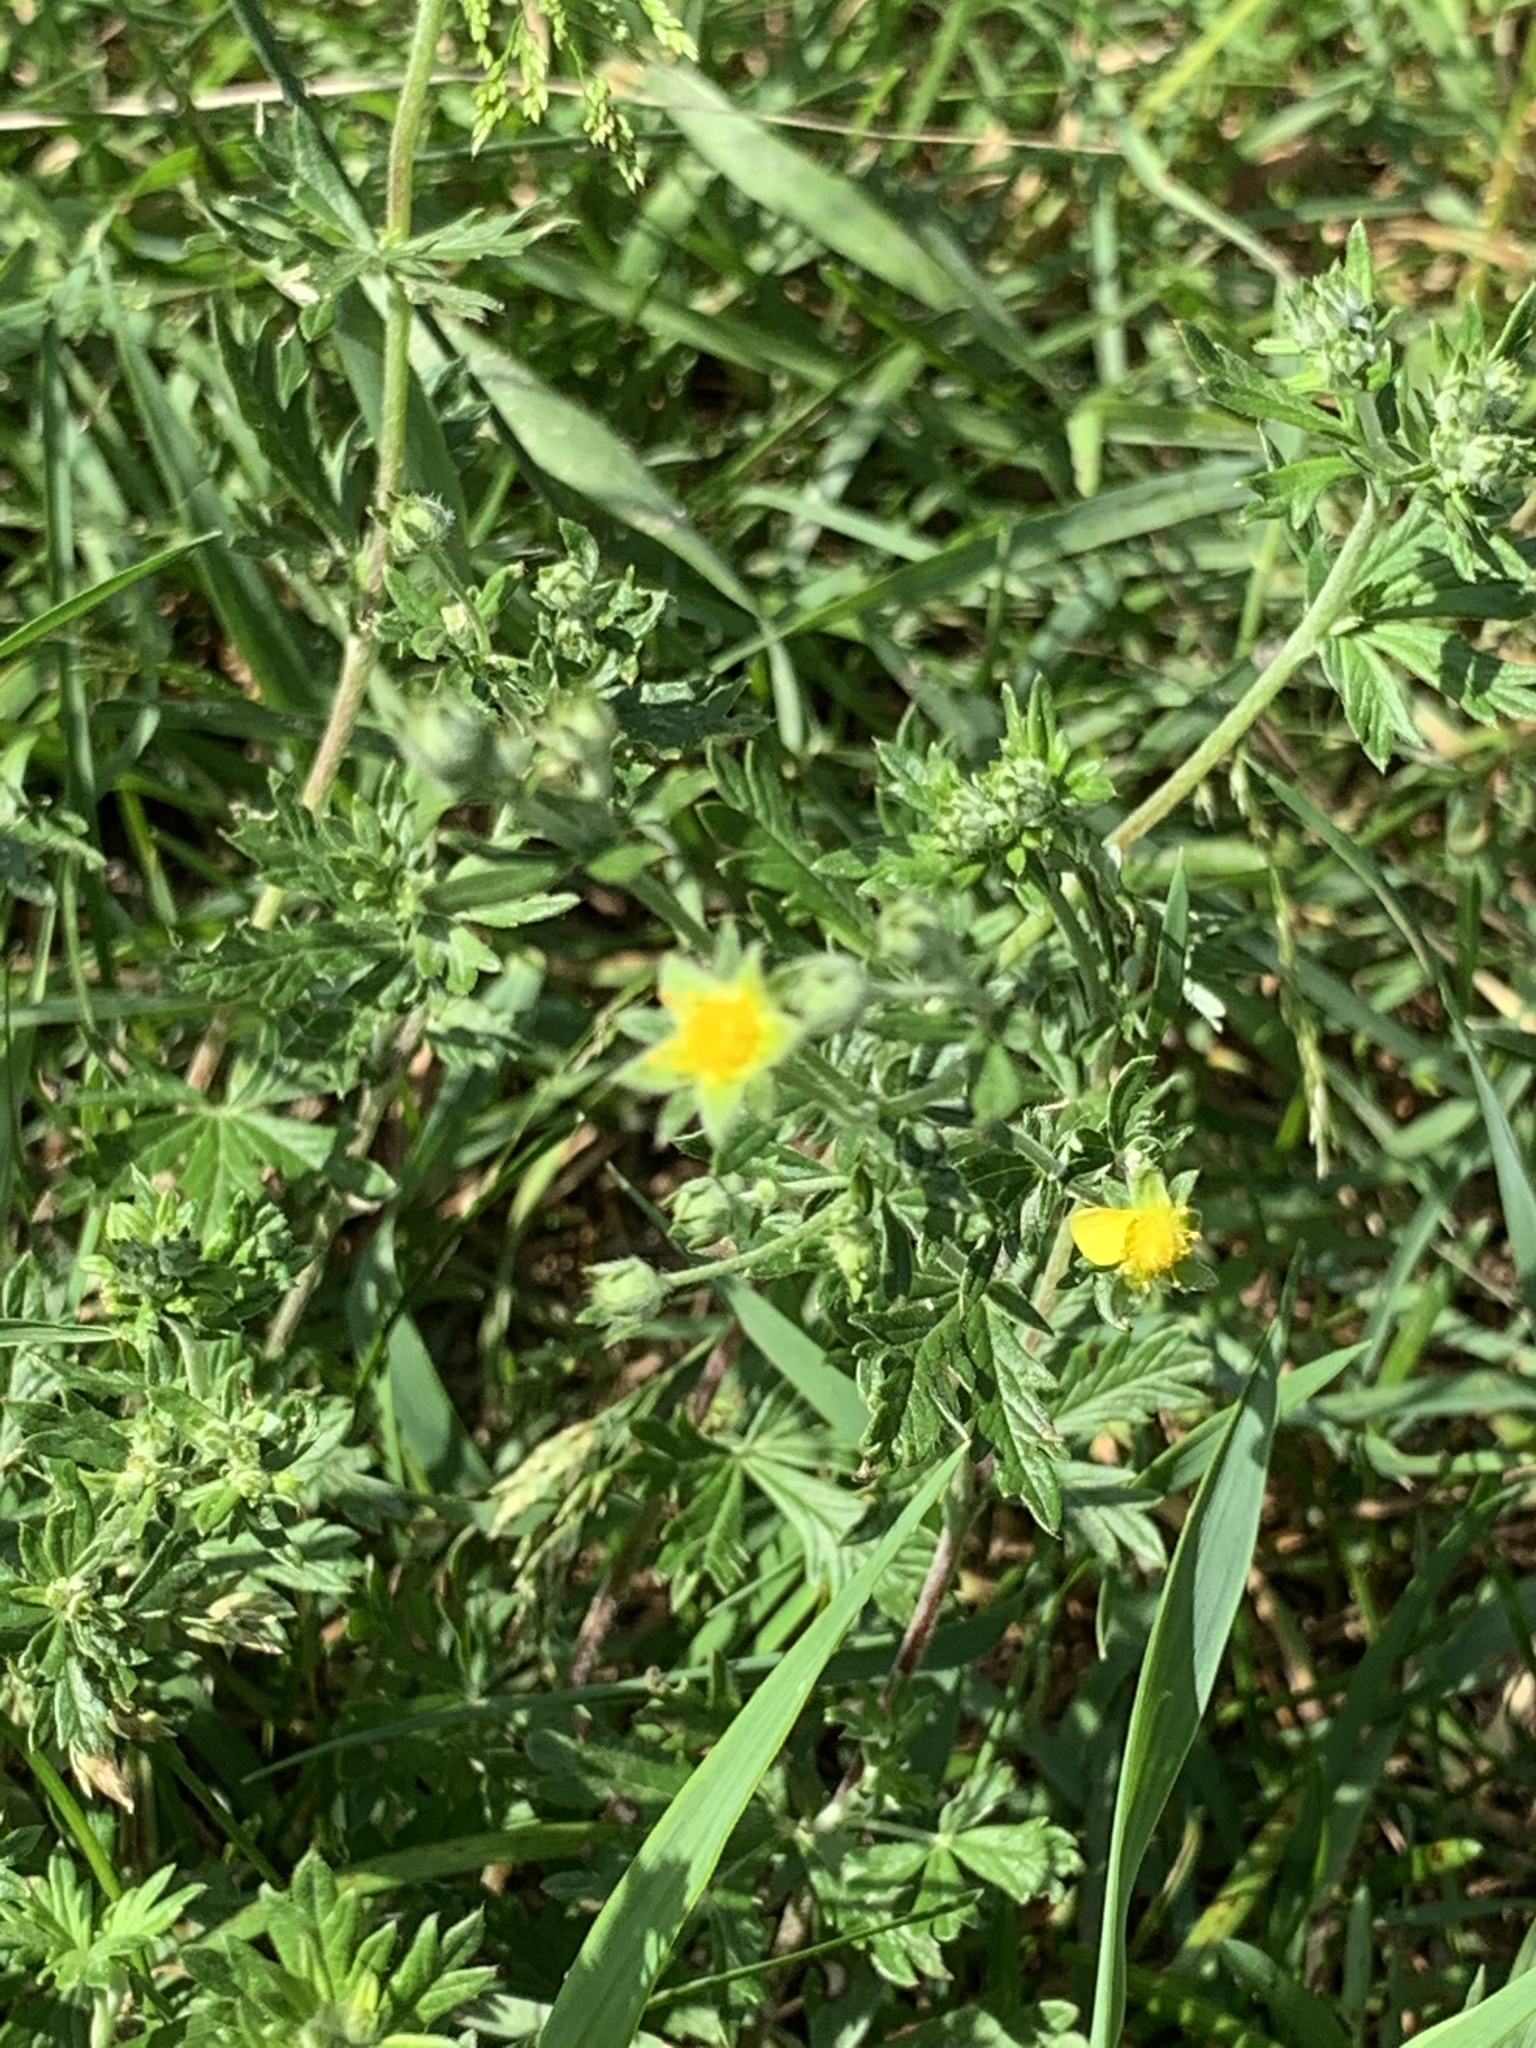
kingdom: Plantae
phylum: Tracheophyta
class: Magnoliopsida
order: Rosales
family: Rosaceae
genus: Potentilla
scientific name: Potentilla argentea
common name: Hoary cinquefoil
